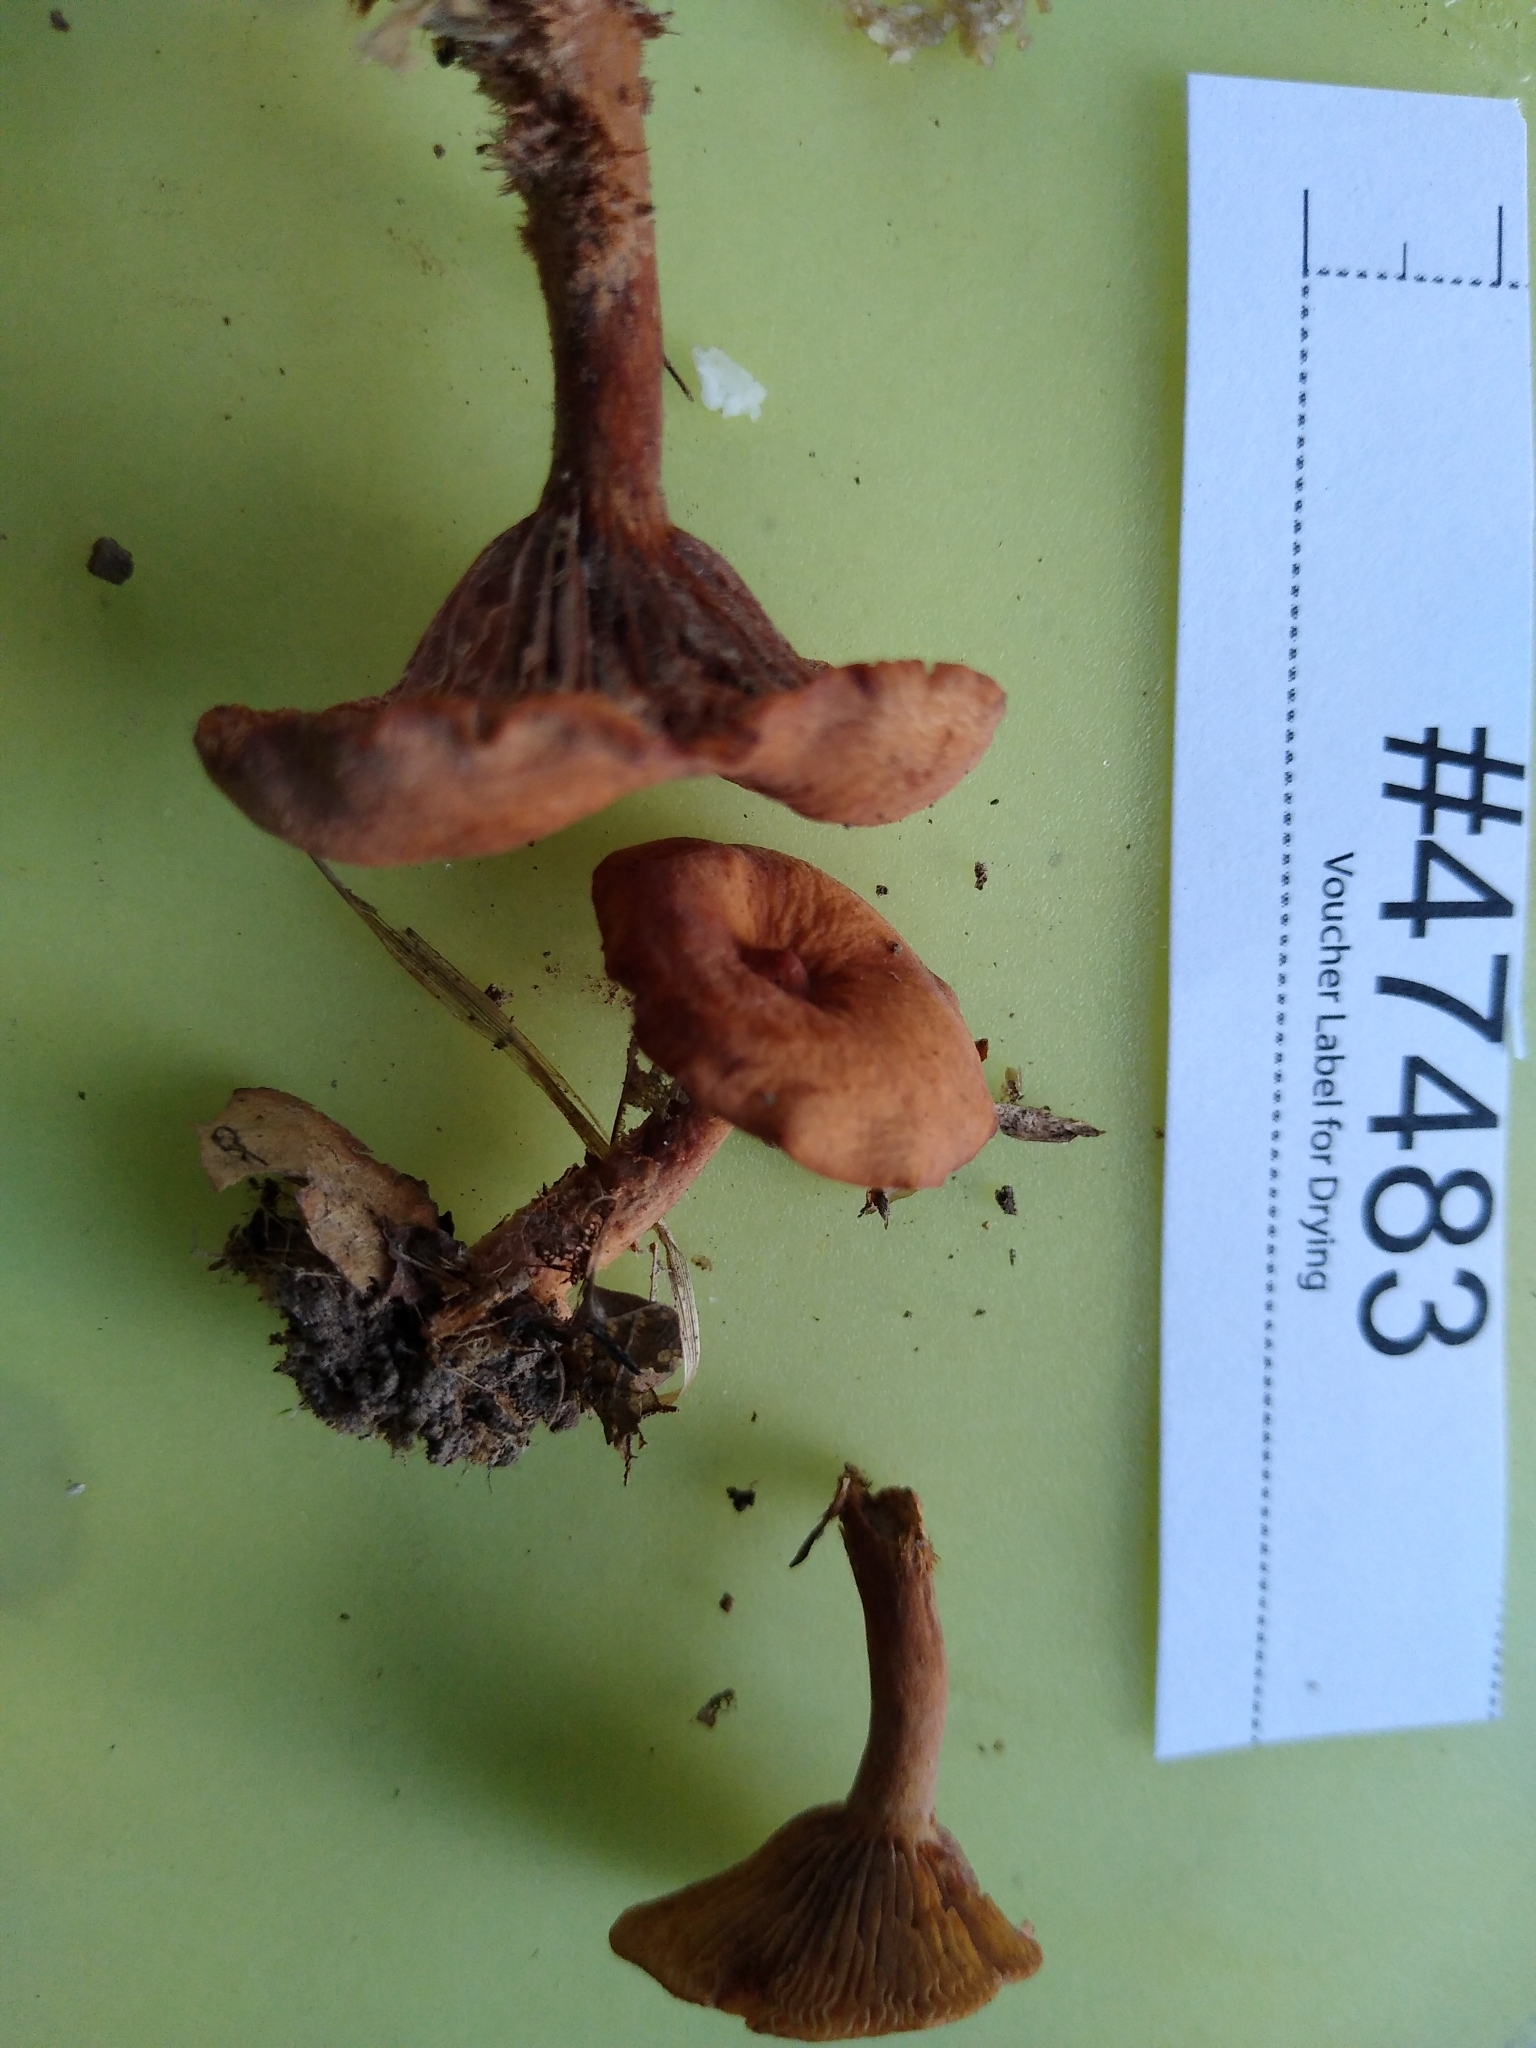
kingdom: Fungi
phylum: Basidiomycota
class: Agaricomycetes
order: Russulales
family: Russulaceae
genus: Lactarius
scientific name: Lactarius subserifluus
